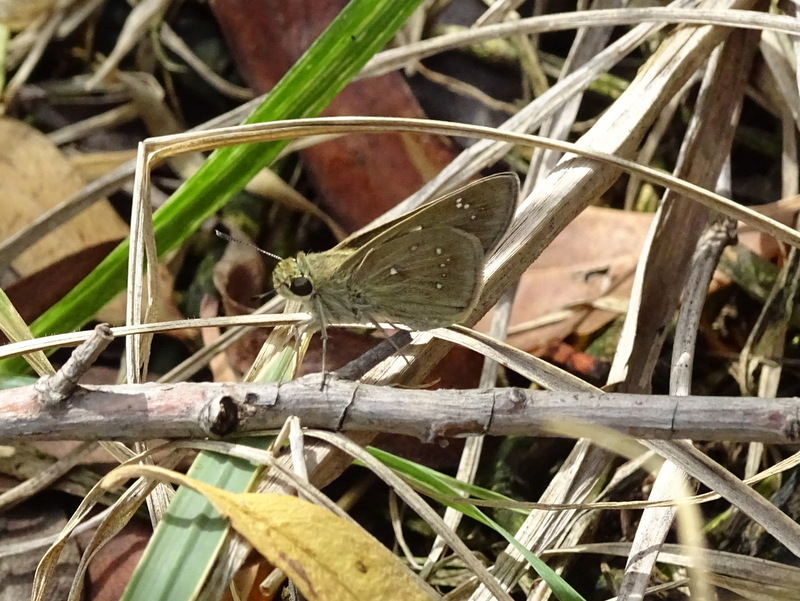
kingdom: Animalia
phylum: Arthropoda
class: Insecta
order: Lepidoptera
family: Hesperiidae
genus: Pelopidas
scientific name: Pelopidas mathias
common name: Black-branded swift
